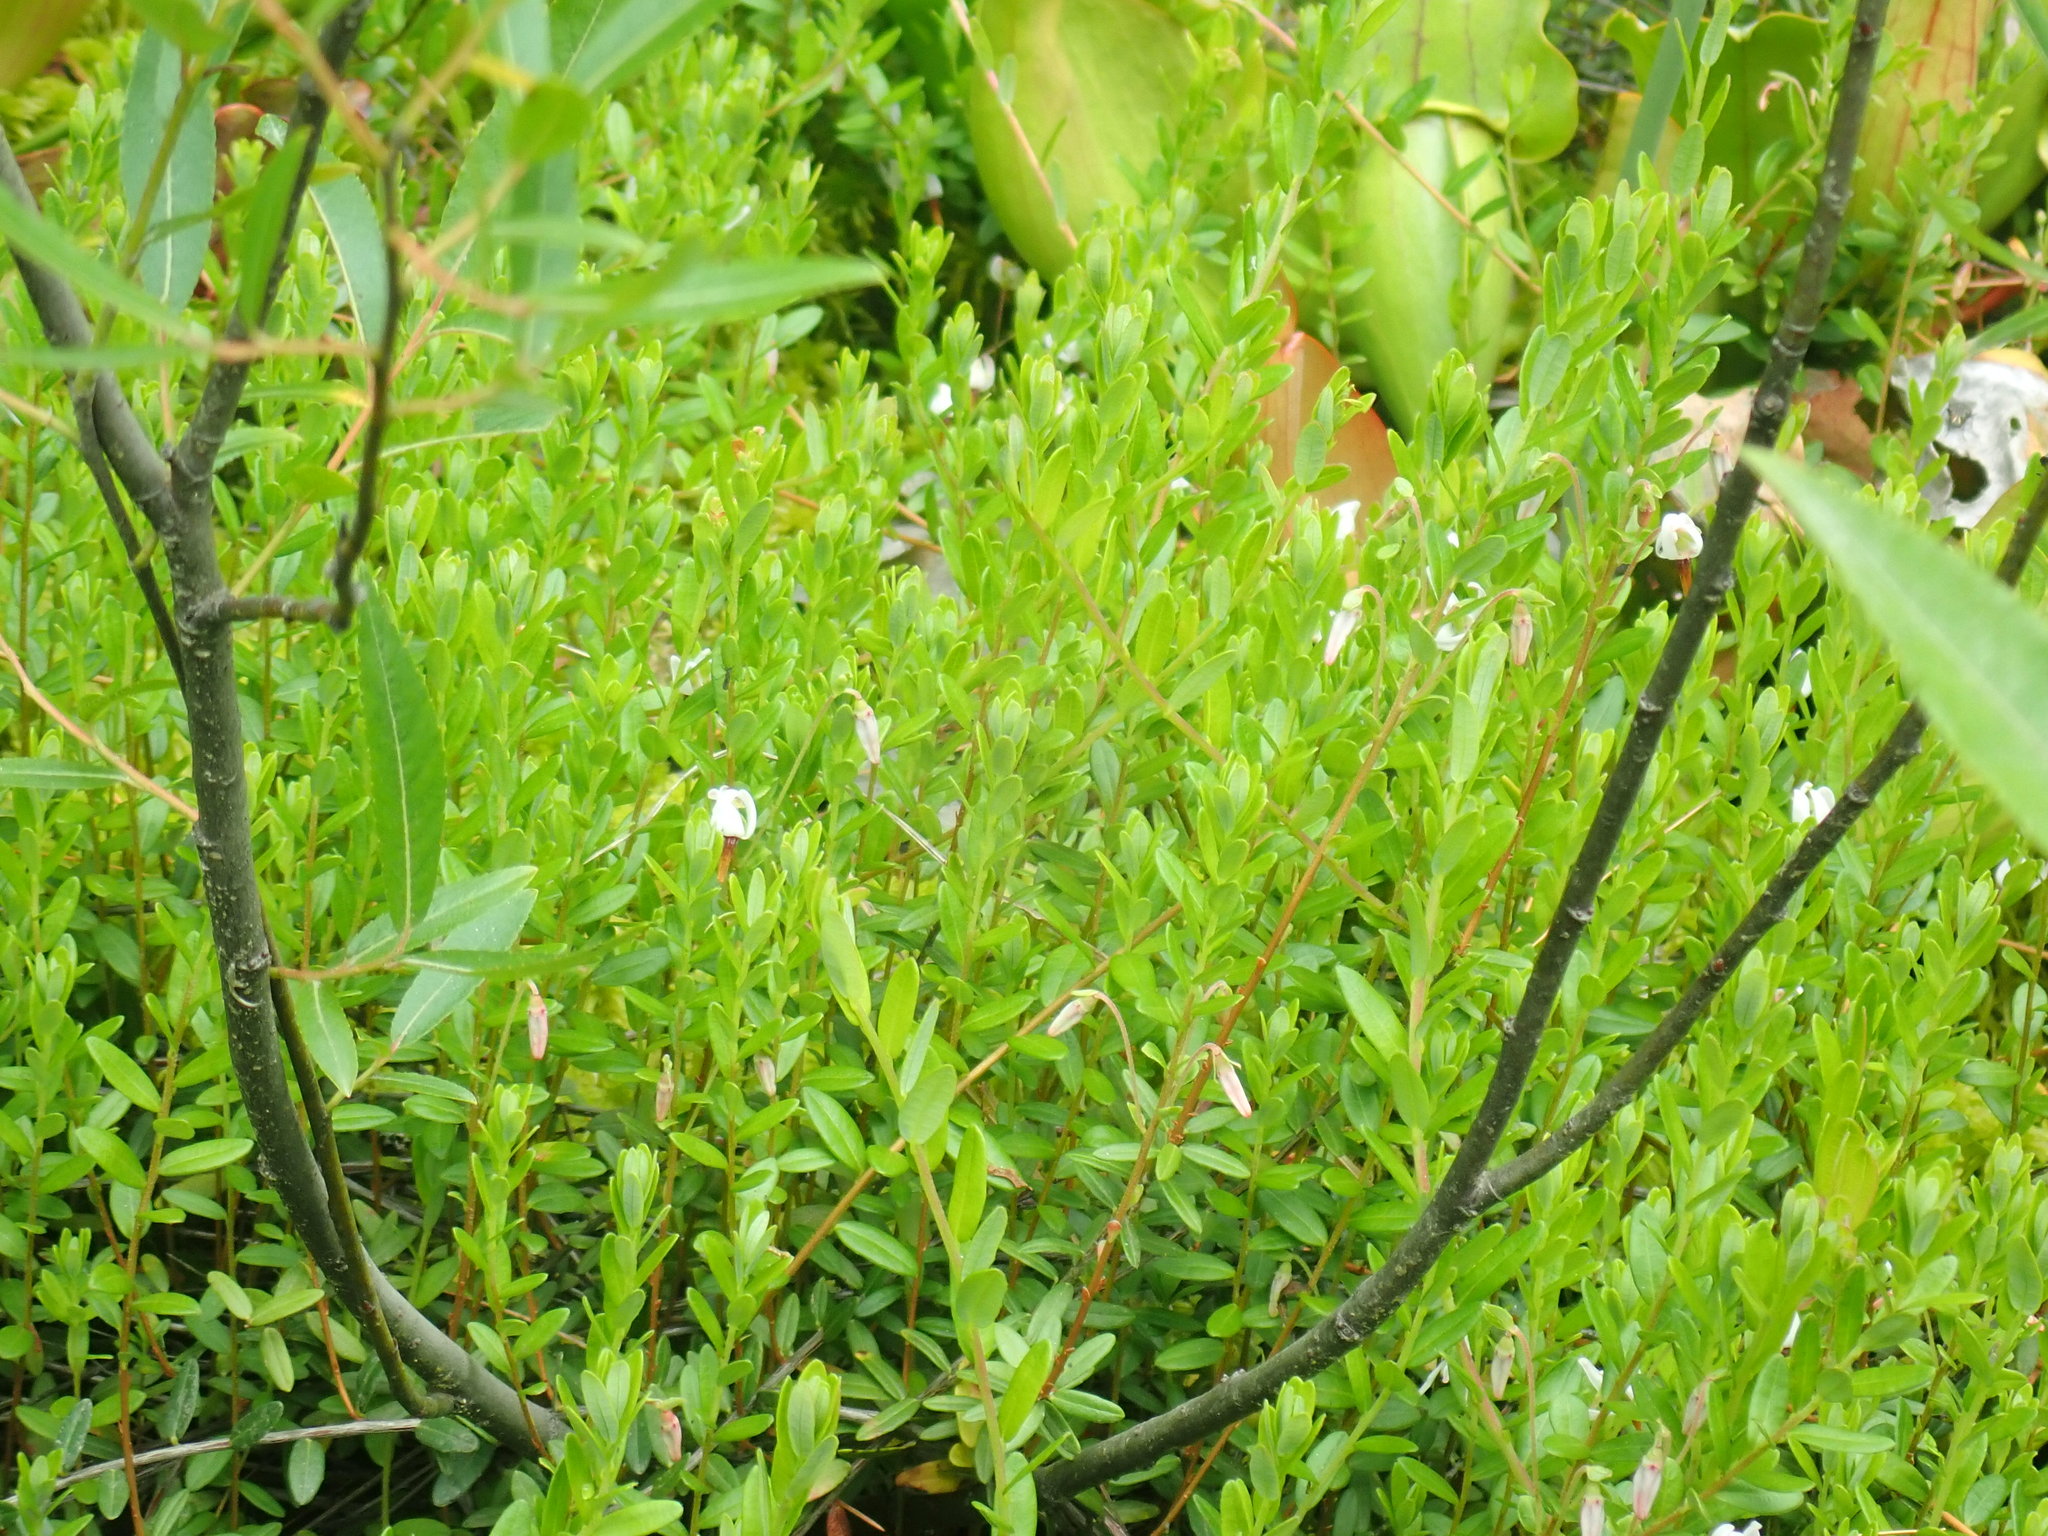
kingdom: Plantae
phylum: Tracheophyta
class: Magnoliopsida
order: Ericales
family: Ericaceae
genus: Vaccinium
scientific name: Vaccinium macrocarpon
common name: American cranberry
